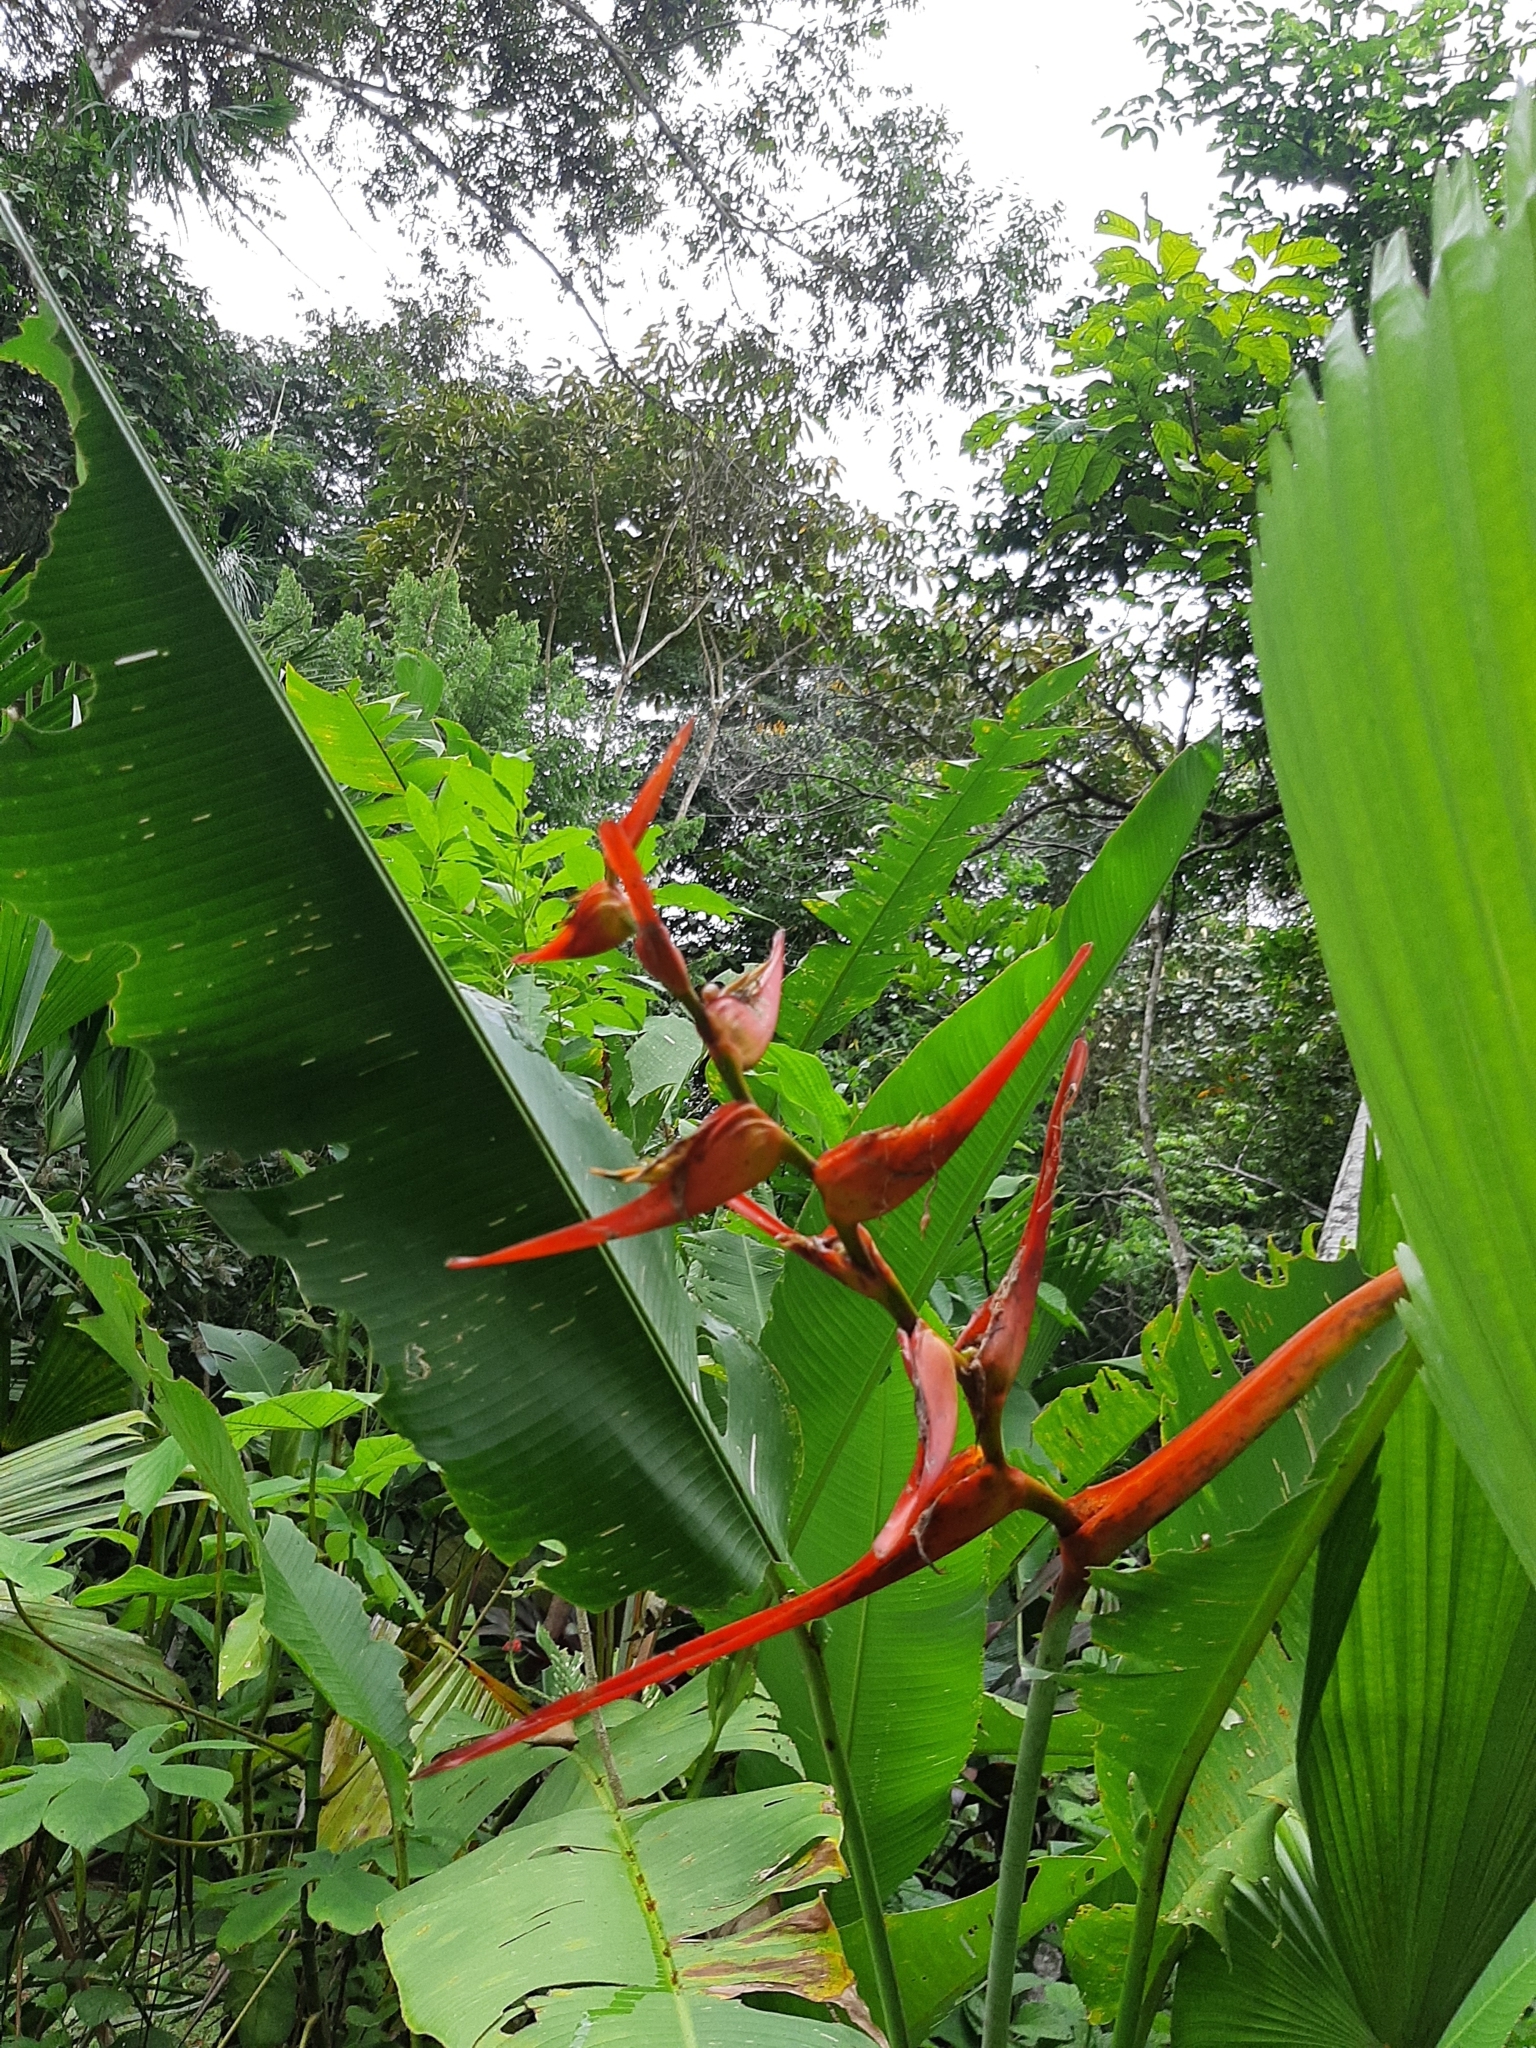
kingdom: Plantae
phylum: Tracheophyta
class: Liliopsida
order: Zingiberales
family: Heliconiaceae
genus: Heliconia
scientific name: Heliconia latispatha
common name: Expanded lobsterclaw
